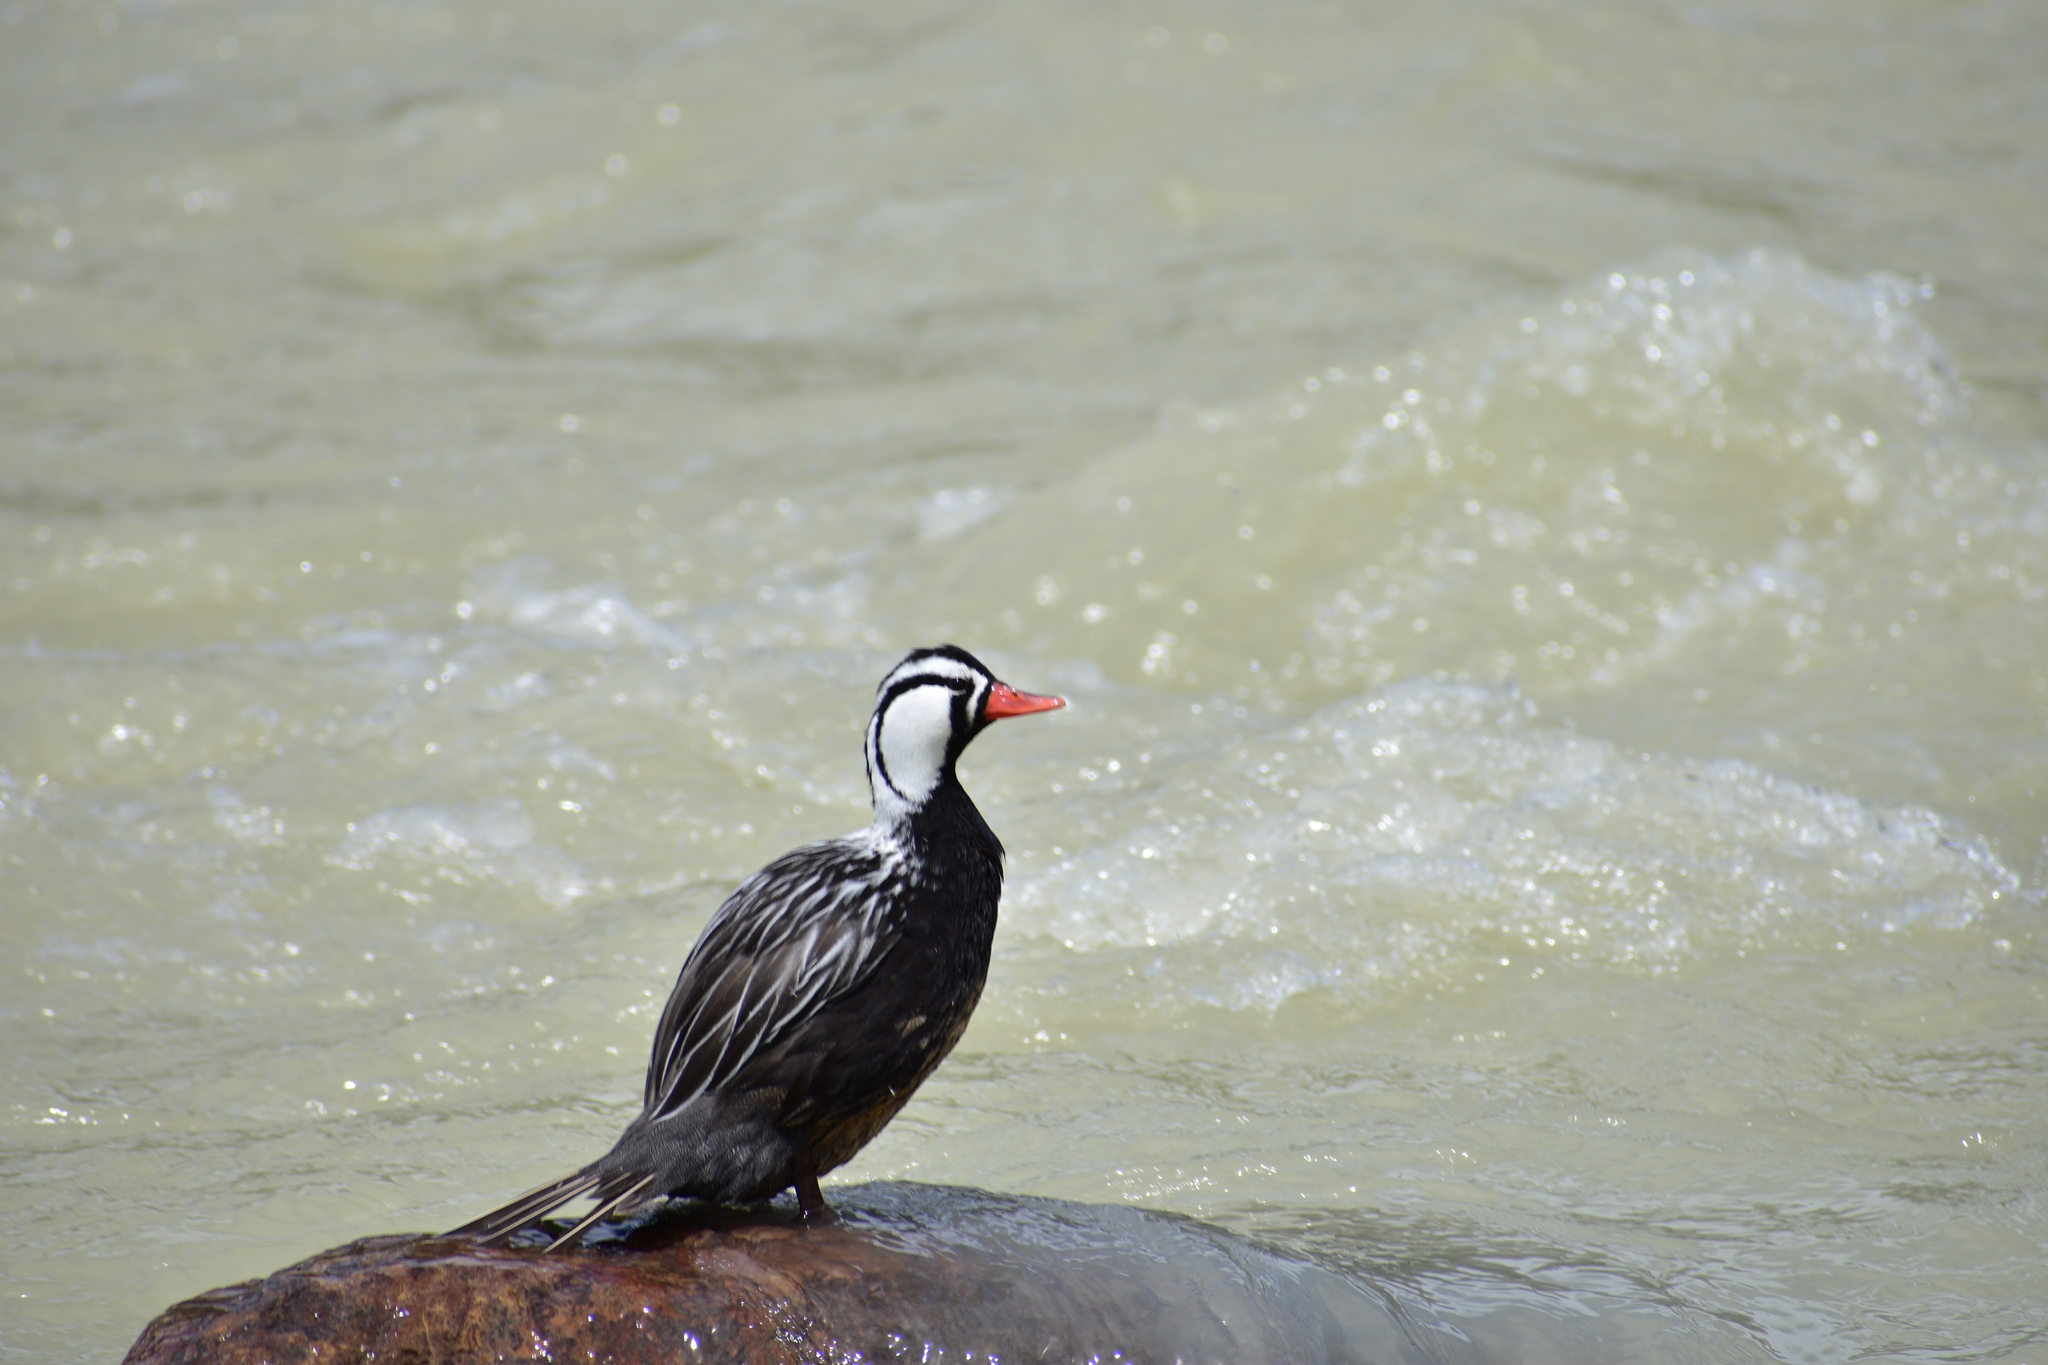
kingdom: Animalia
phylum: Chordata
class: Aves
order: Anseriformes
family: Anatidae
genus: Merganetta
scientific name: Merganetta armata
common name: Torrent duck
